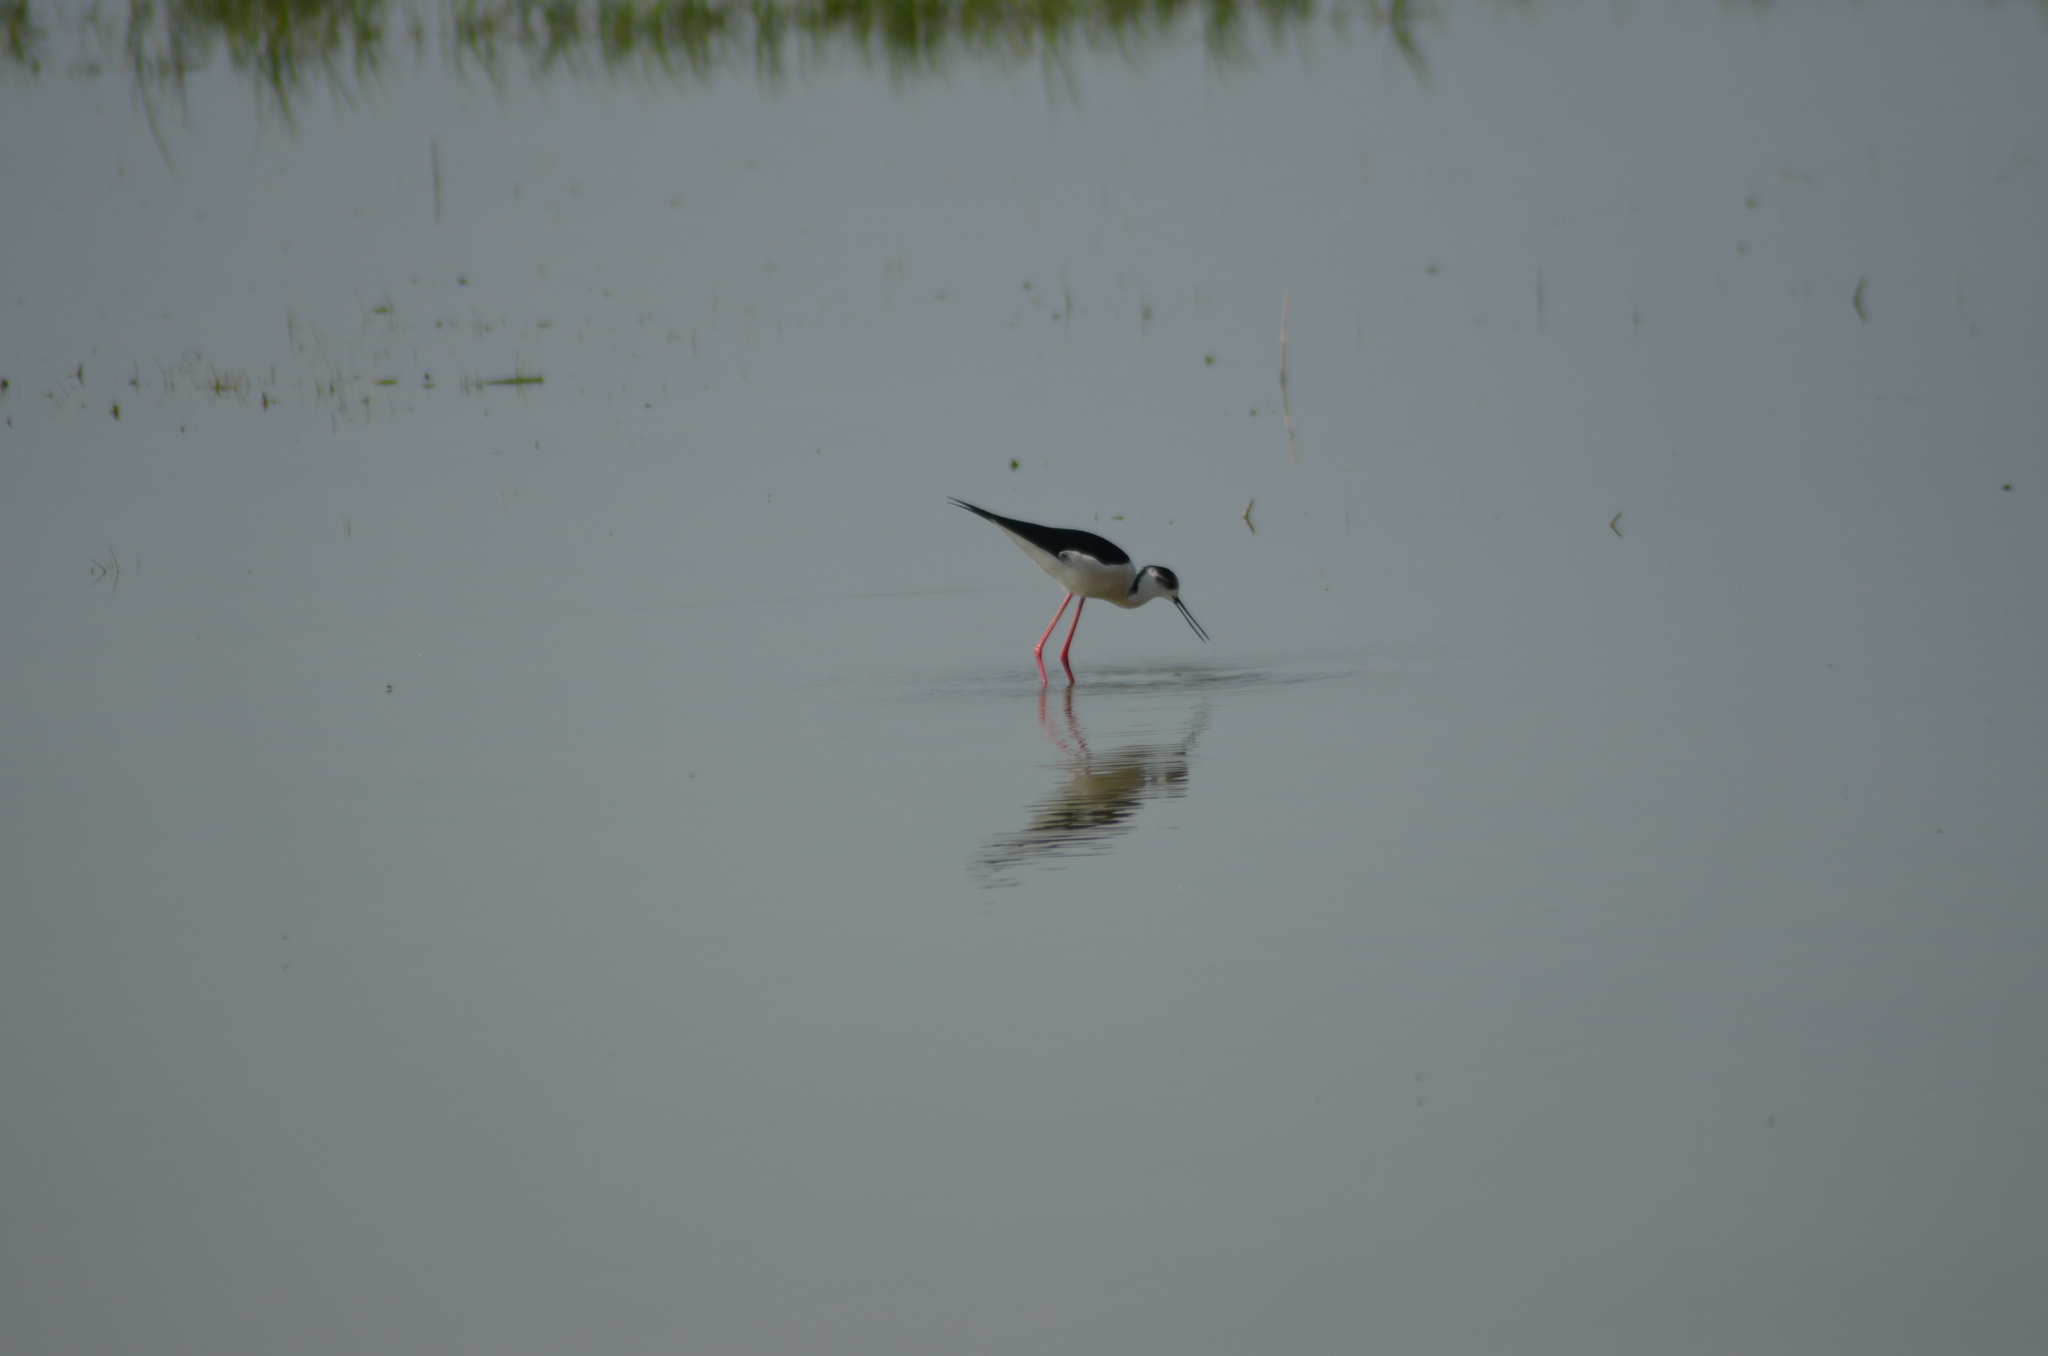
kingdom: Animalia
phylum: Chordata
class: Aves
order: Charadriiformes
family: Recurvirostridae
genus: Himantopus
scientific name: Himantopus himantopus
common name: Black-winged stilt
